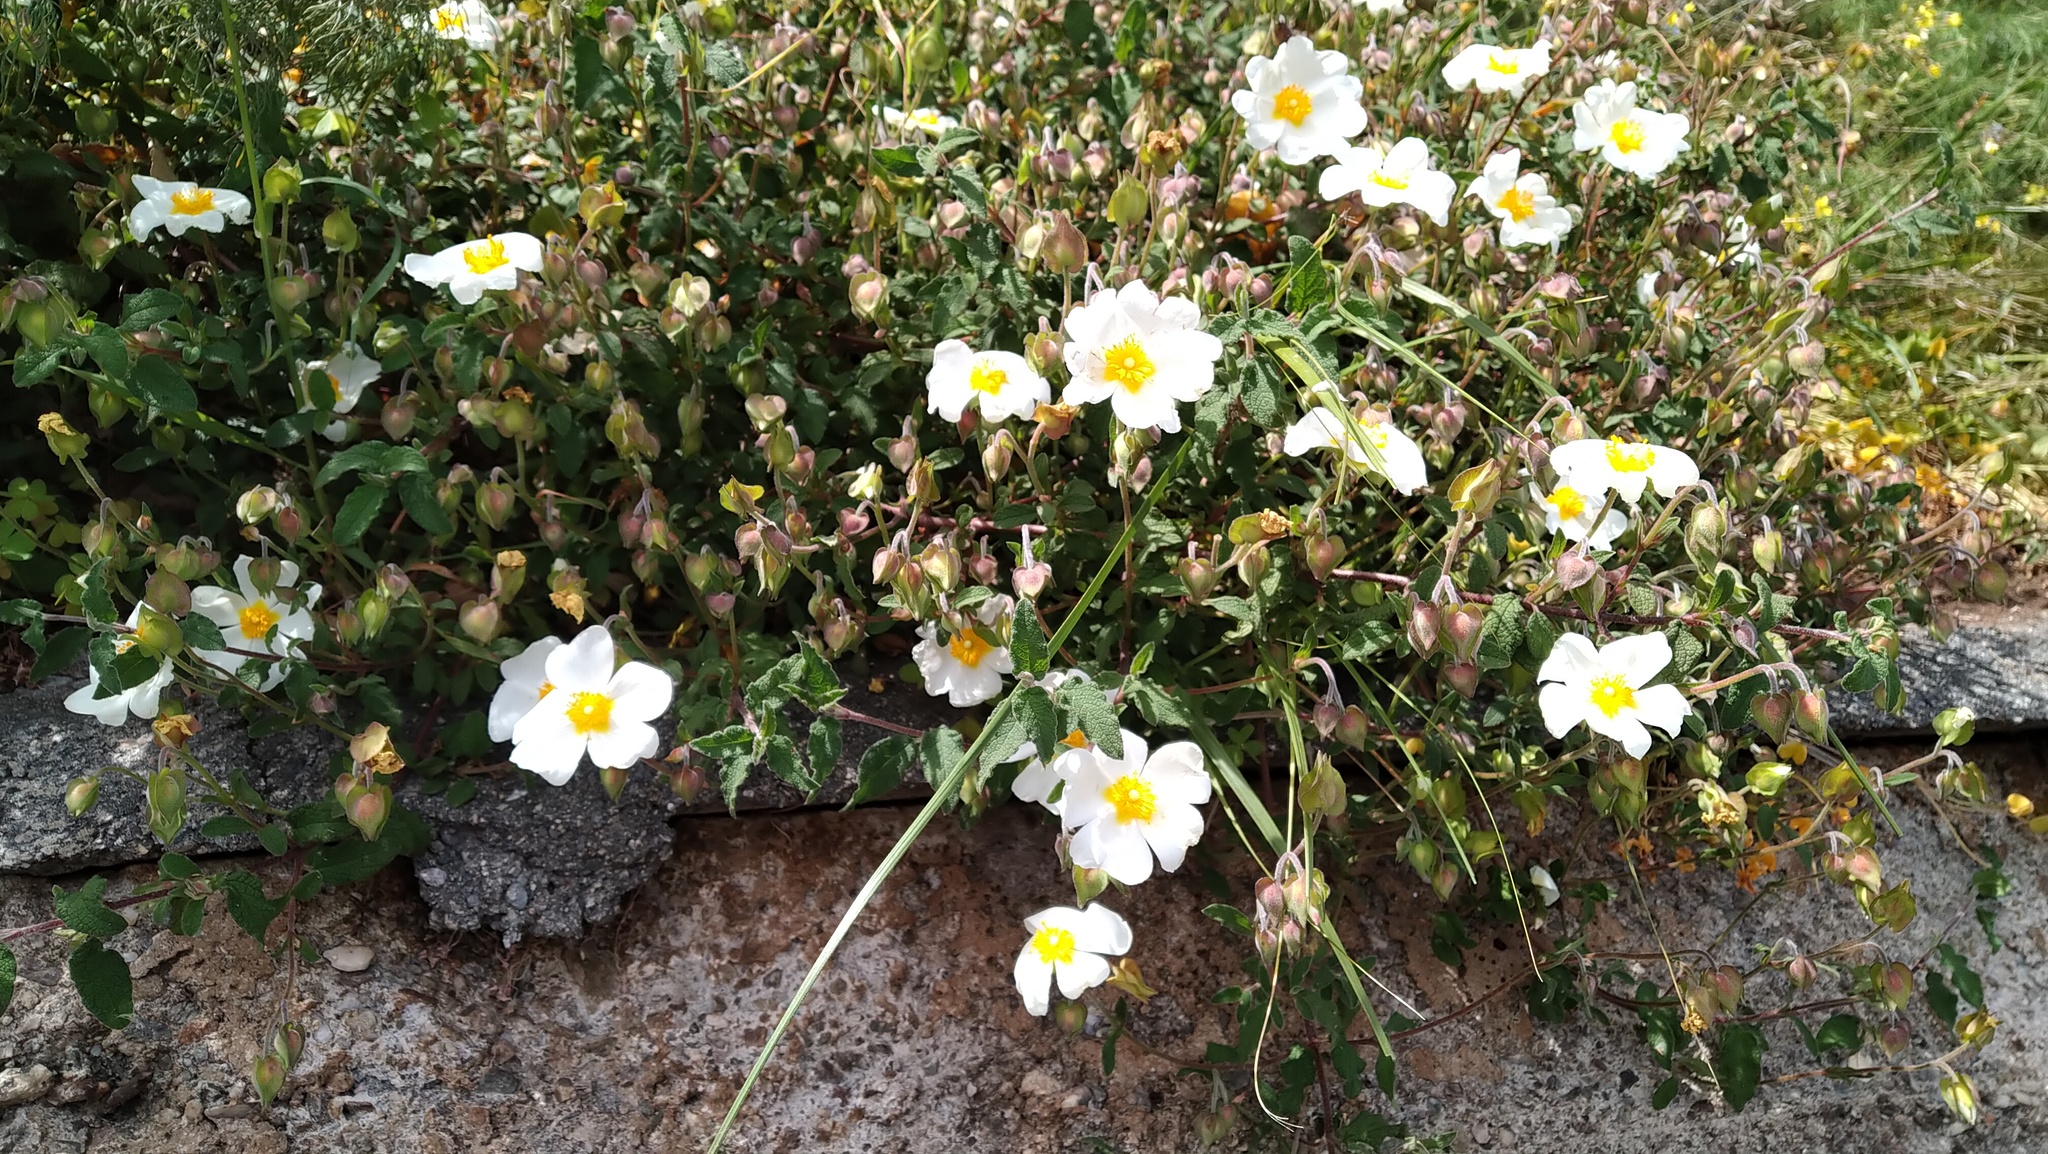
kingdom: Plantae
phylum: Tracheophyta
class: Magnoliopsida
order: Malvales
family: Cistaceae
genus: Cistus
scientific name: Cistus salviifolius
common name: Salvia cistus
